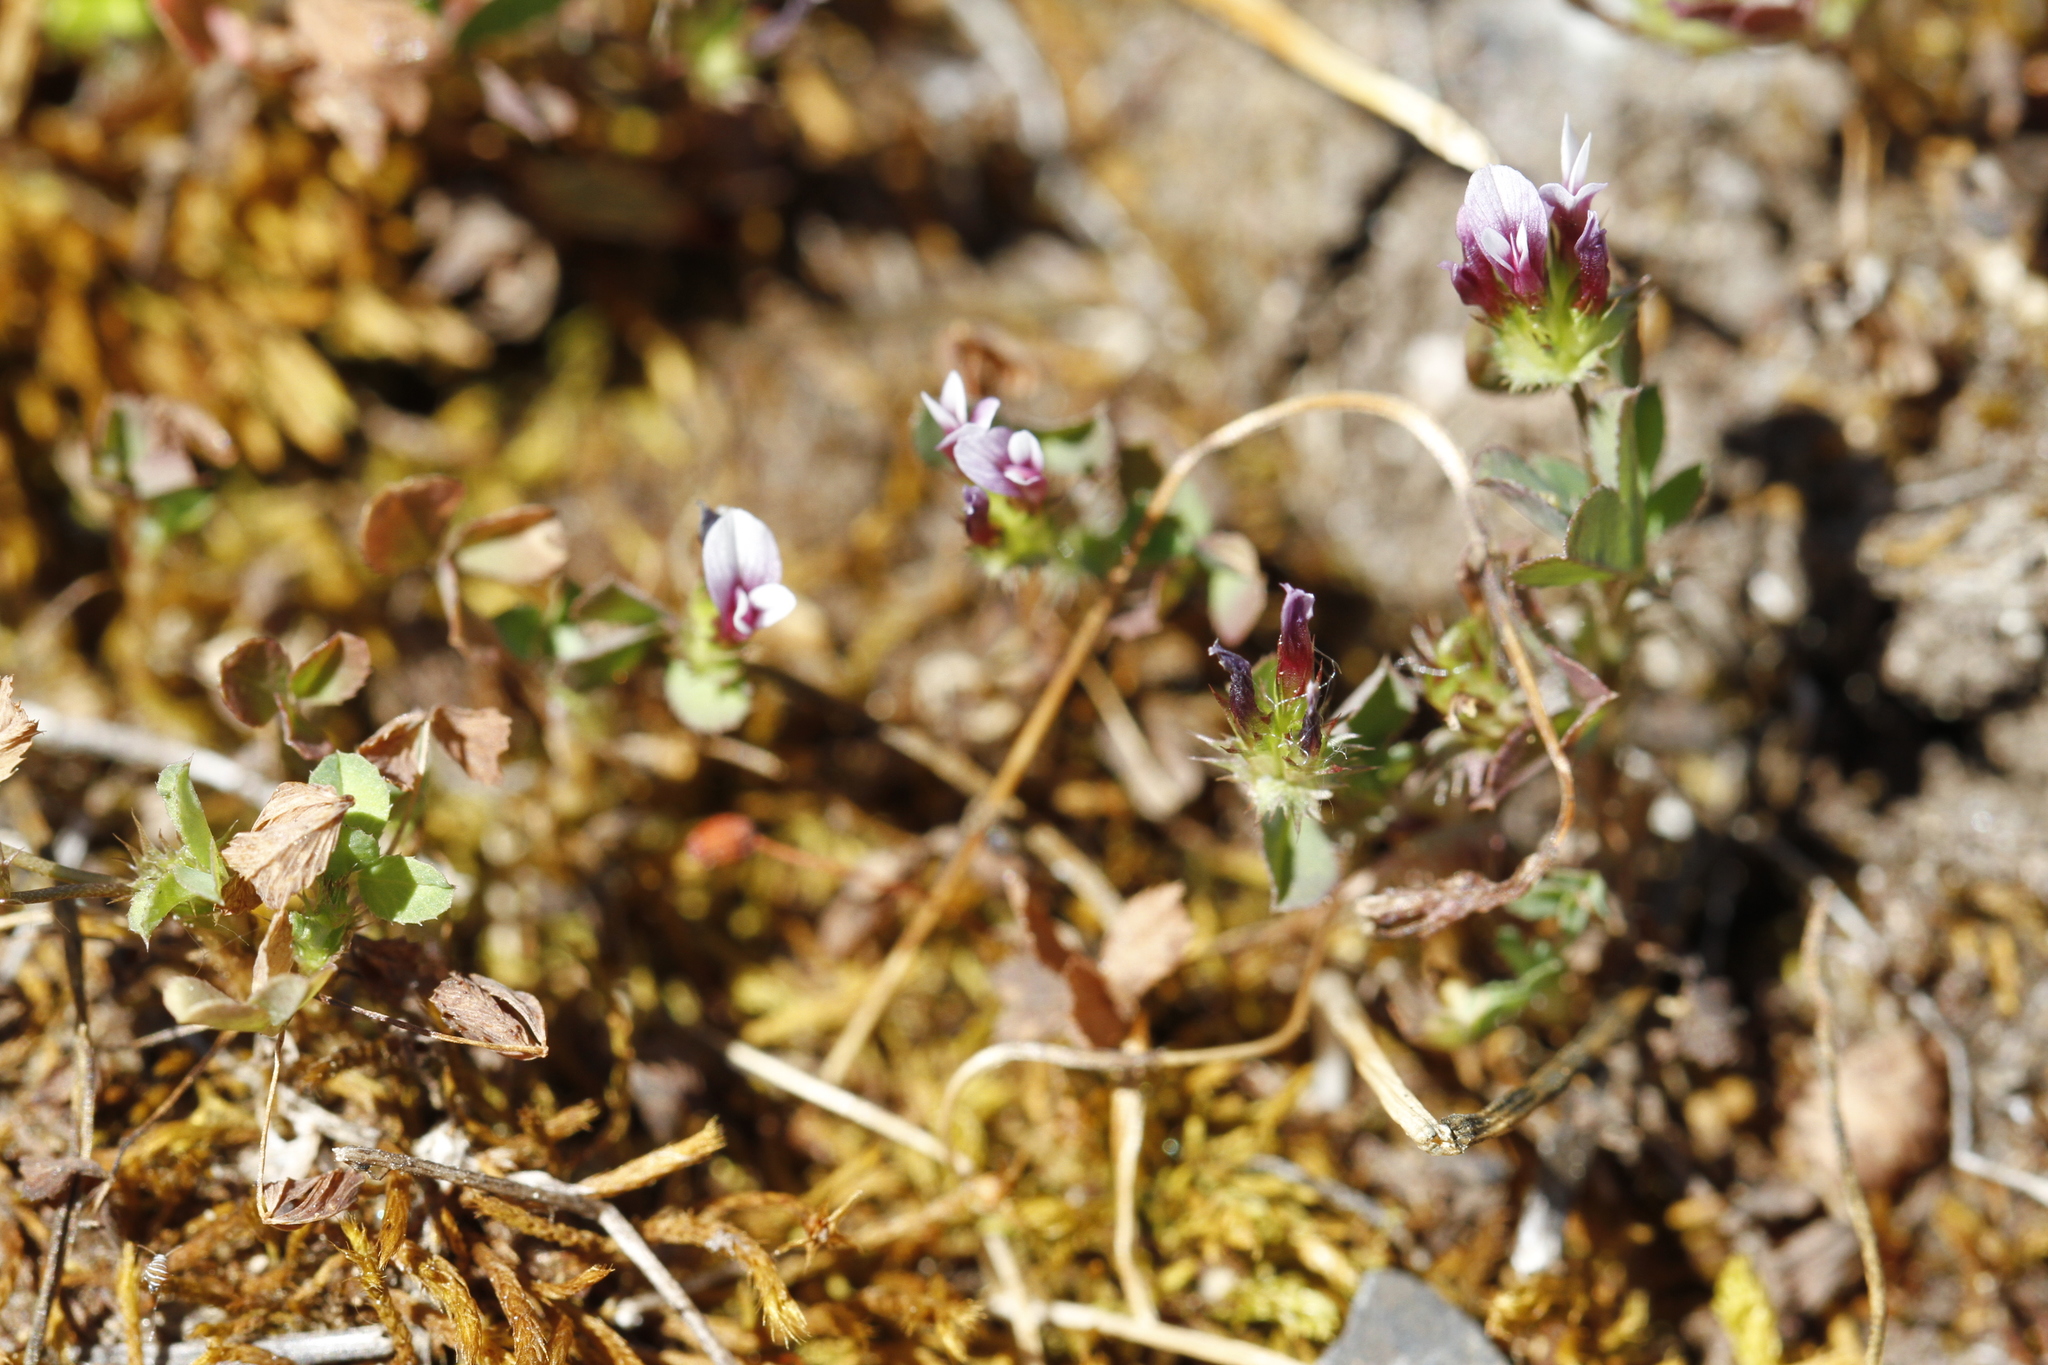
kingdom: Plantae
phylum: Tracheophyta
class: Magnoliopsida
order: Fabales
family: Fabaceae
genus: Trifolium
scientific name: Trifolium variegatum
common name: Whitetip clover
